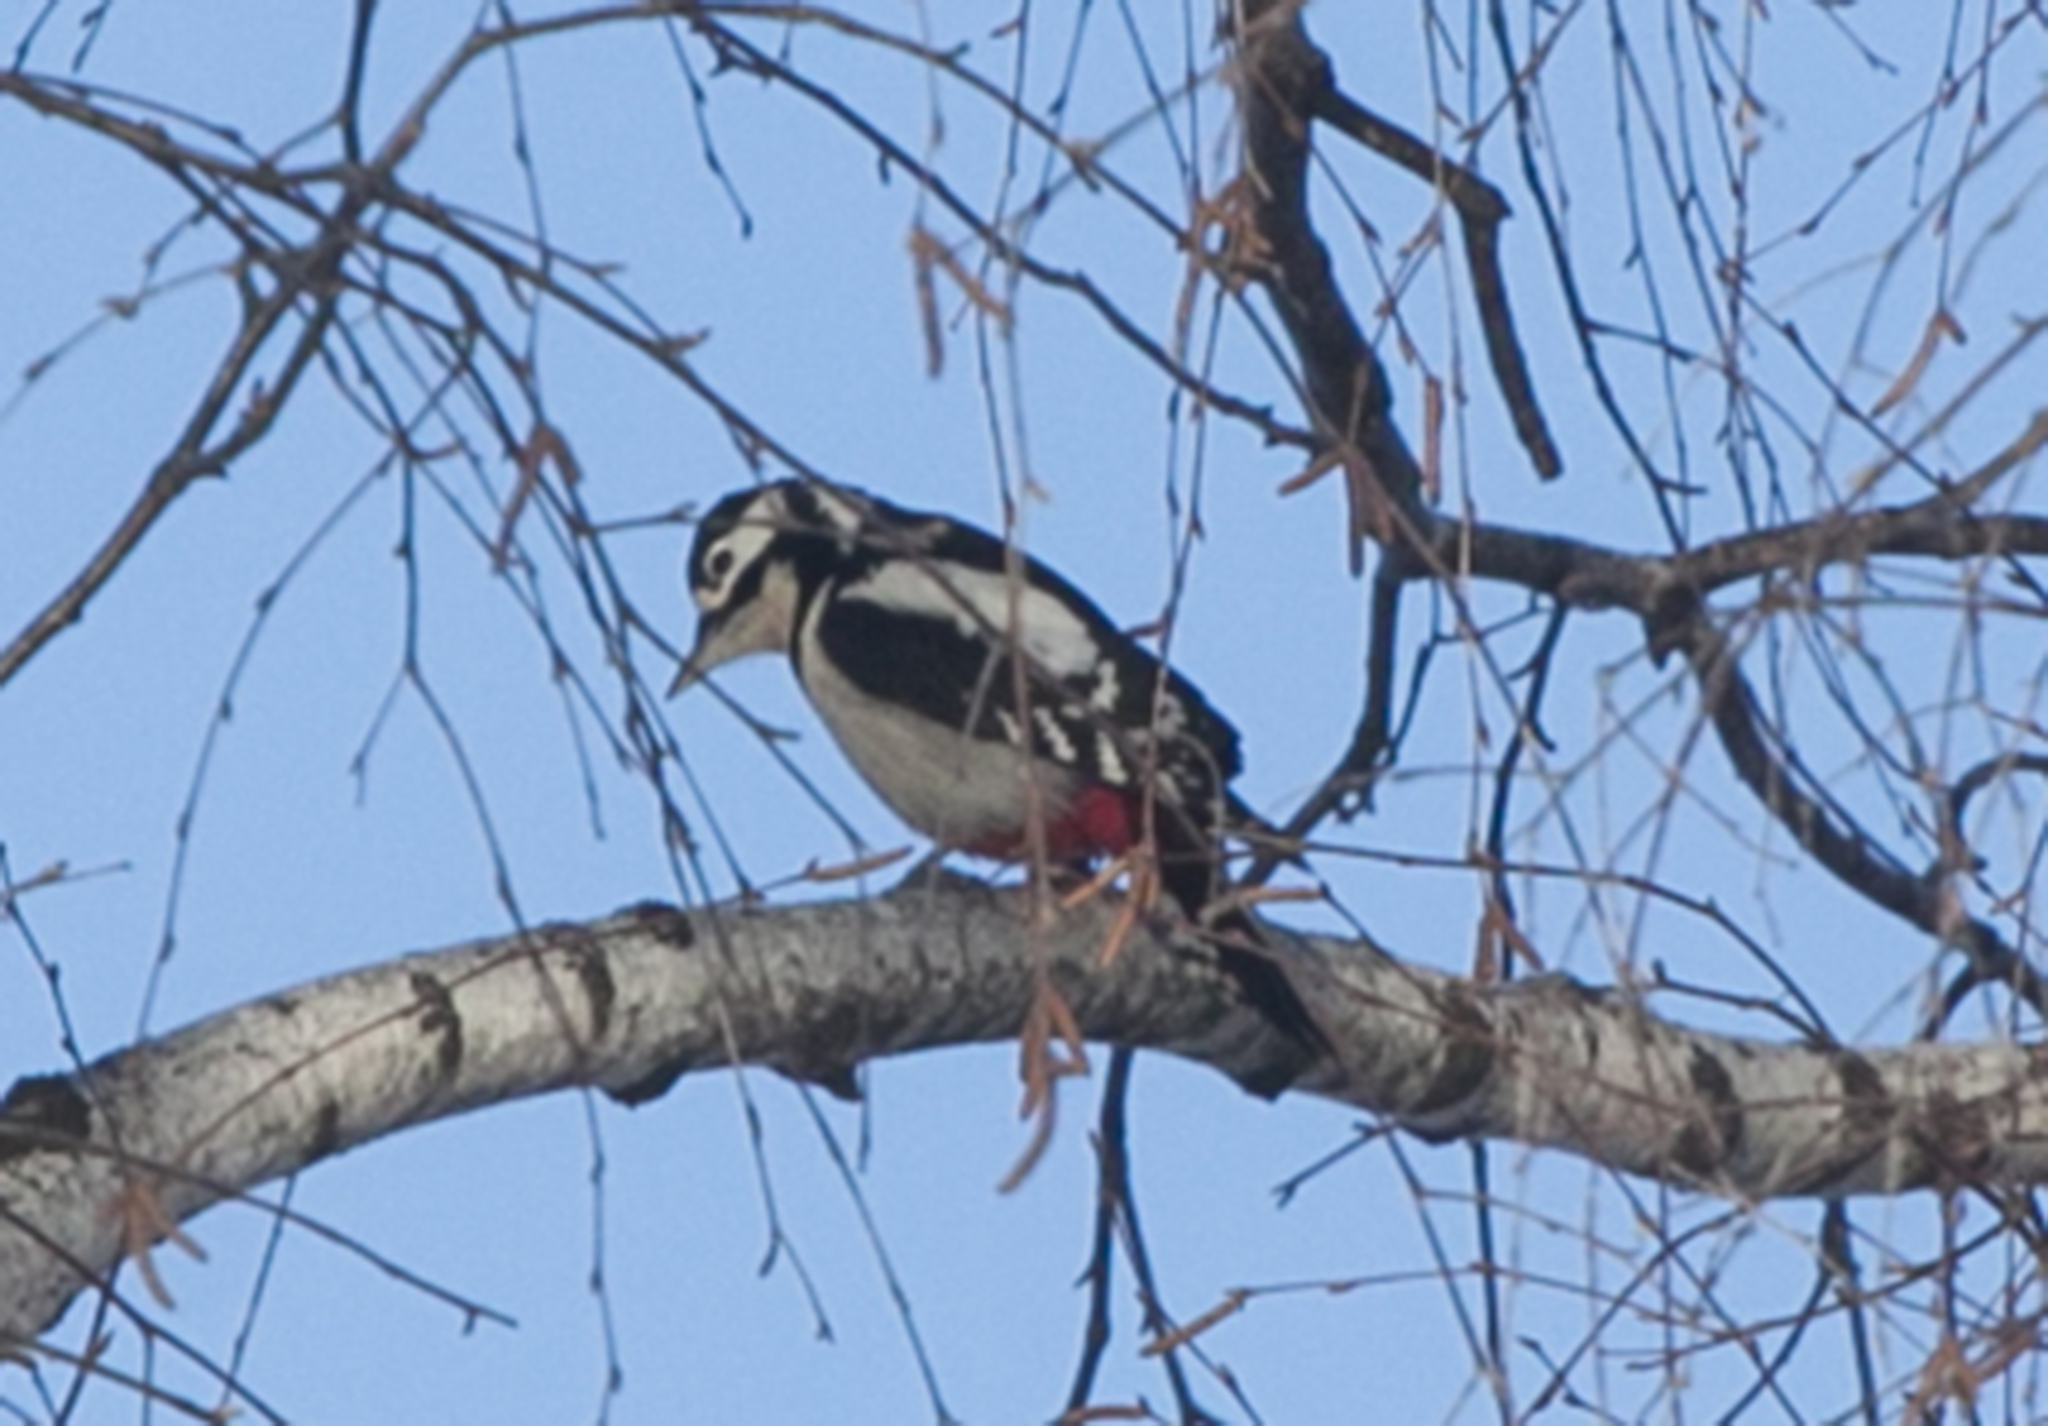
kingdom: Animalia
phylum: Chordata
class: Aves
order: Piciformes
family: Picidae
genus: Dendrocopos
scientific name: Dendrocopos major
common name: Great spotted woodpecker
